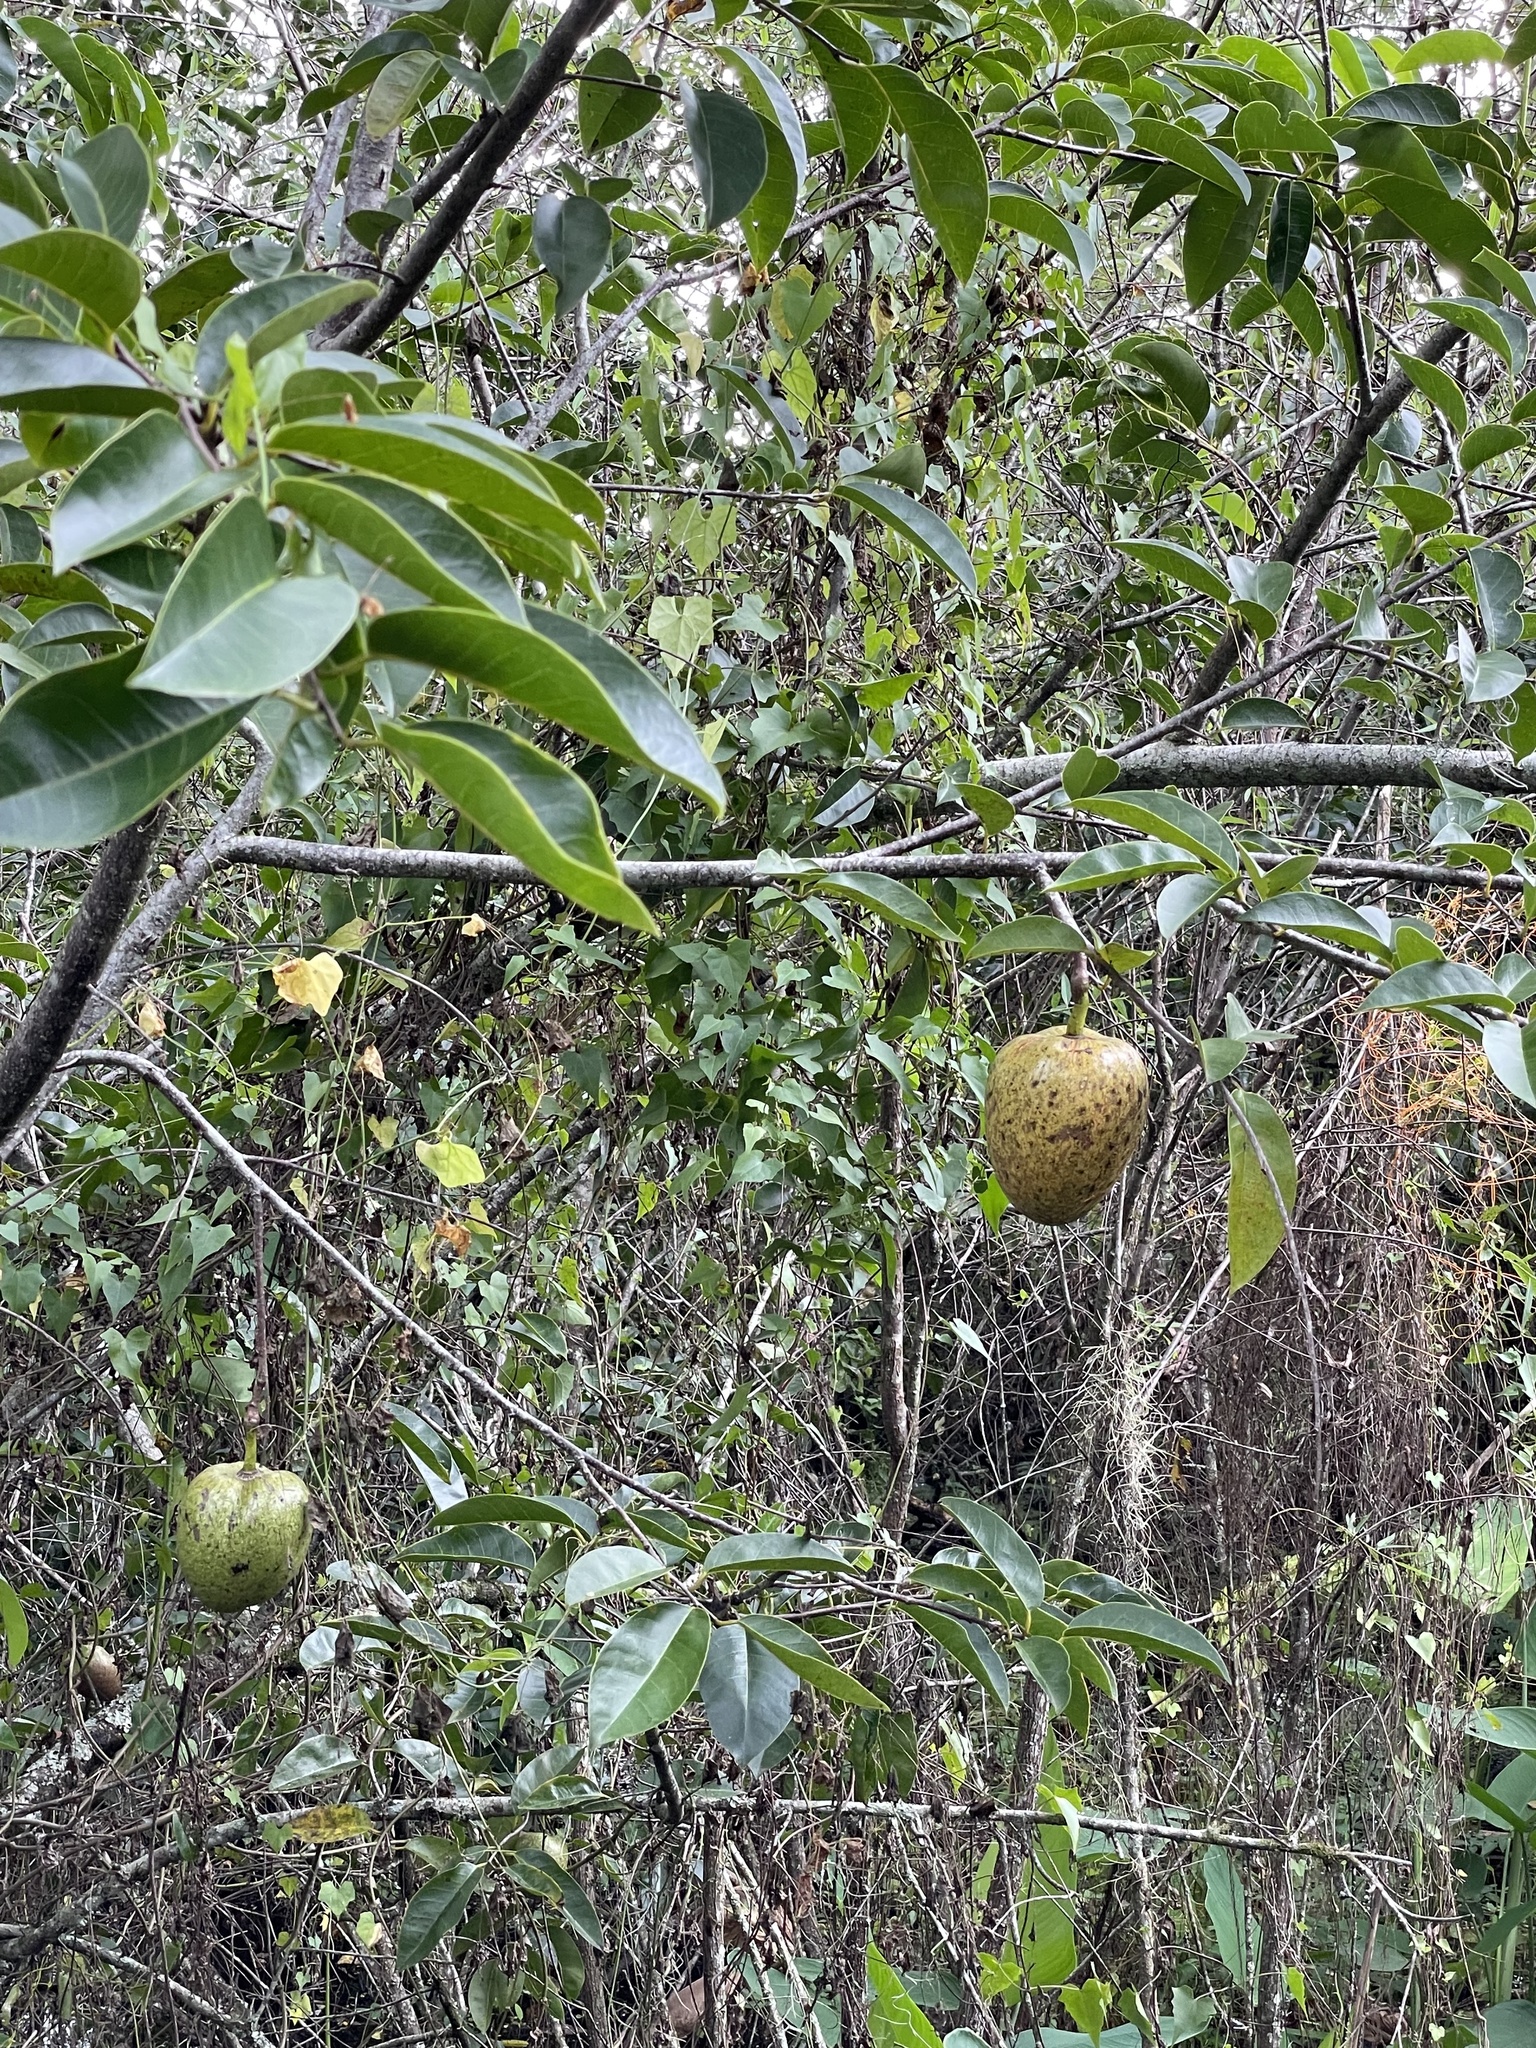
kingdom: Plantae
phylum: Tracheophyta
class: Magnoliopsida
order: Magnoliales
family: Annonaceae
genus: Annona
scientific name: Annona glabra
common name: Monkey apple
